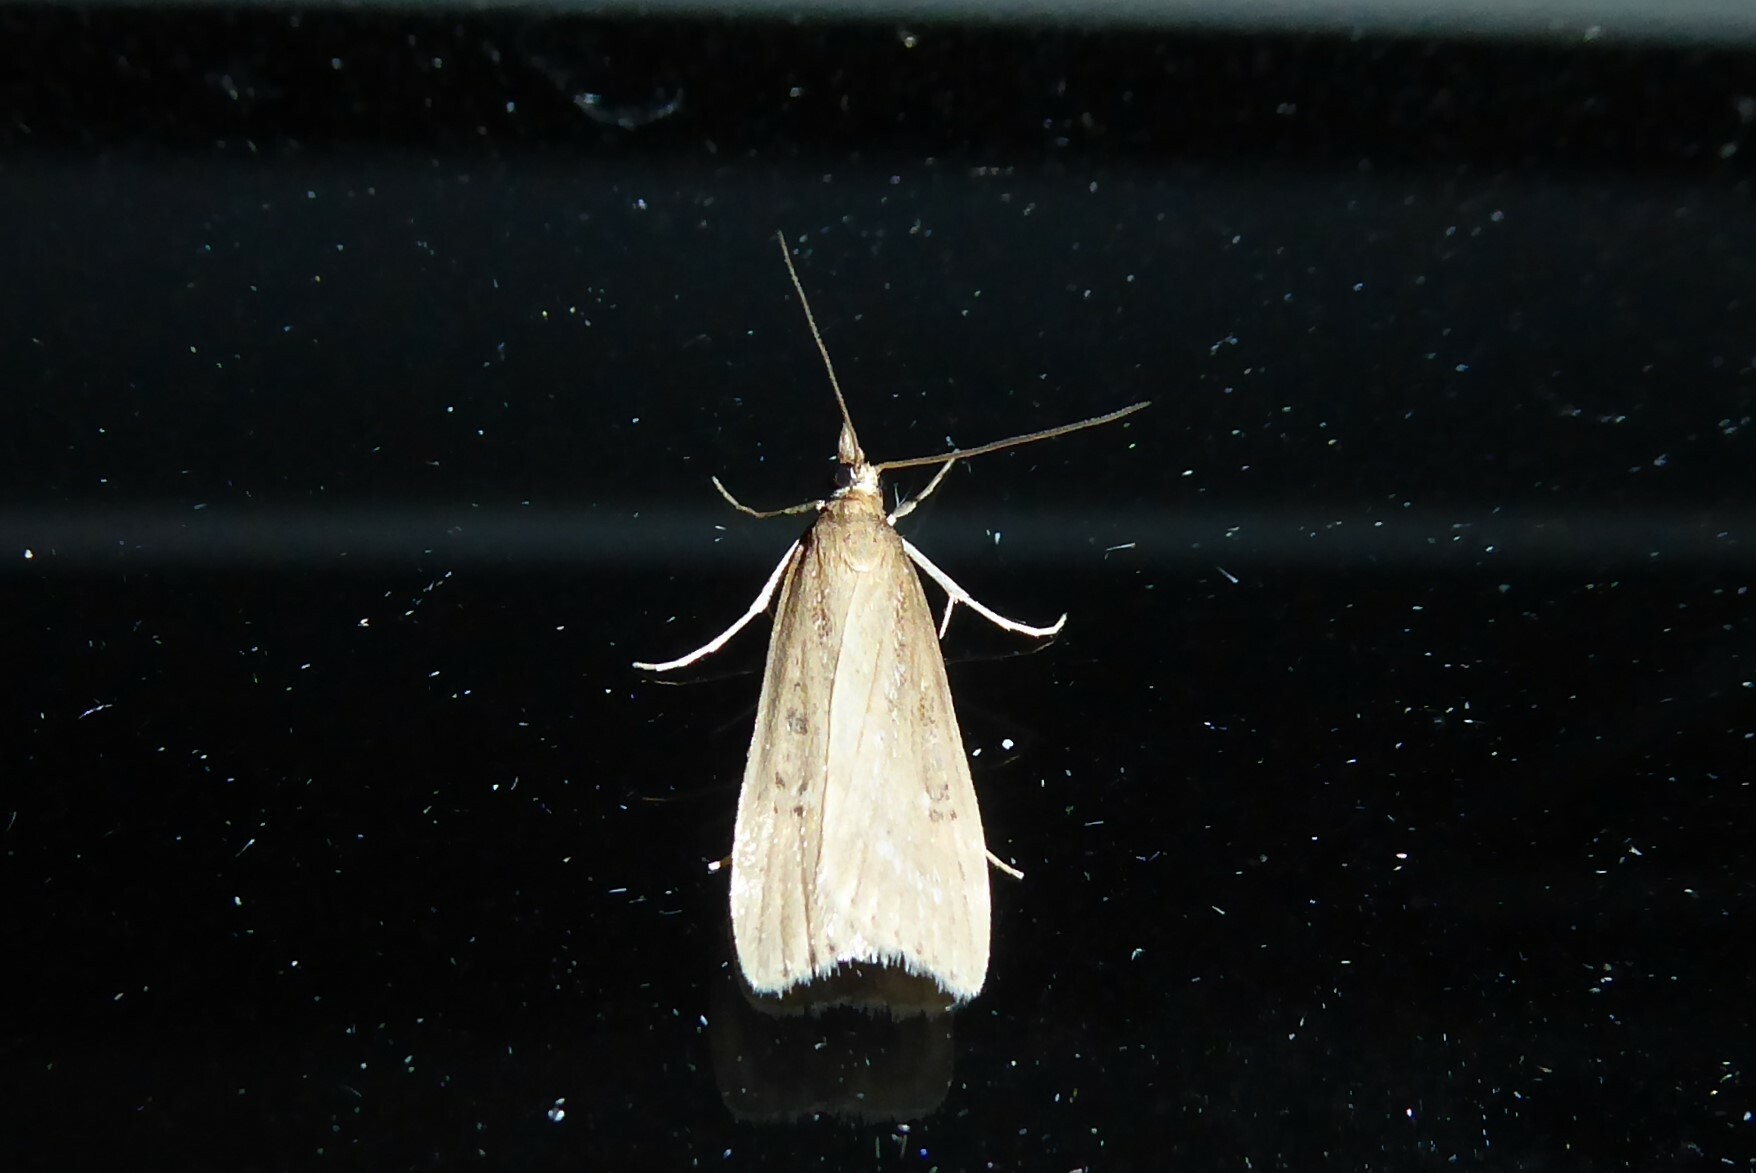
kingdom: Animalia
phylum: Arthropoda
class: Insecta
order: Lepidoptera
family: Crambidae
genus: Eudonia
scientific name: Eudonia octophora
